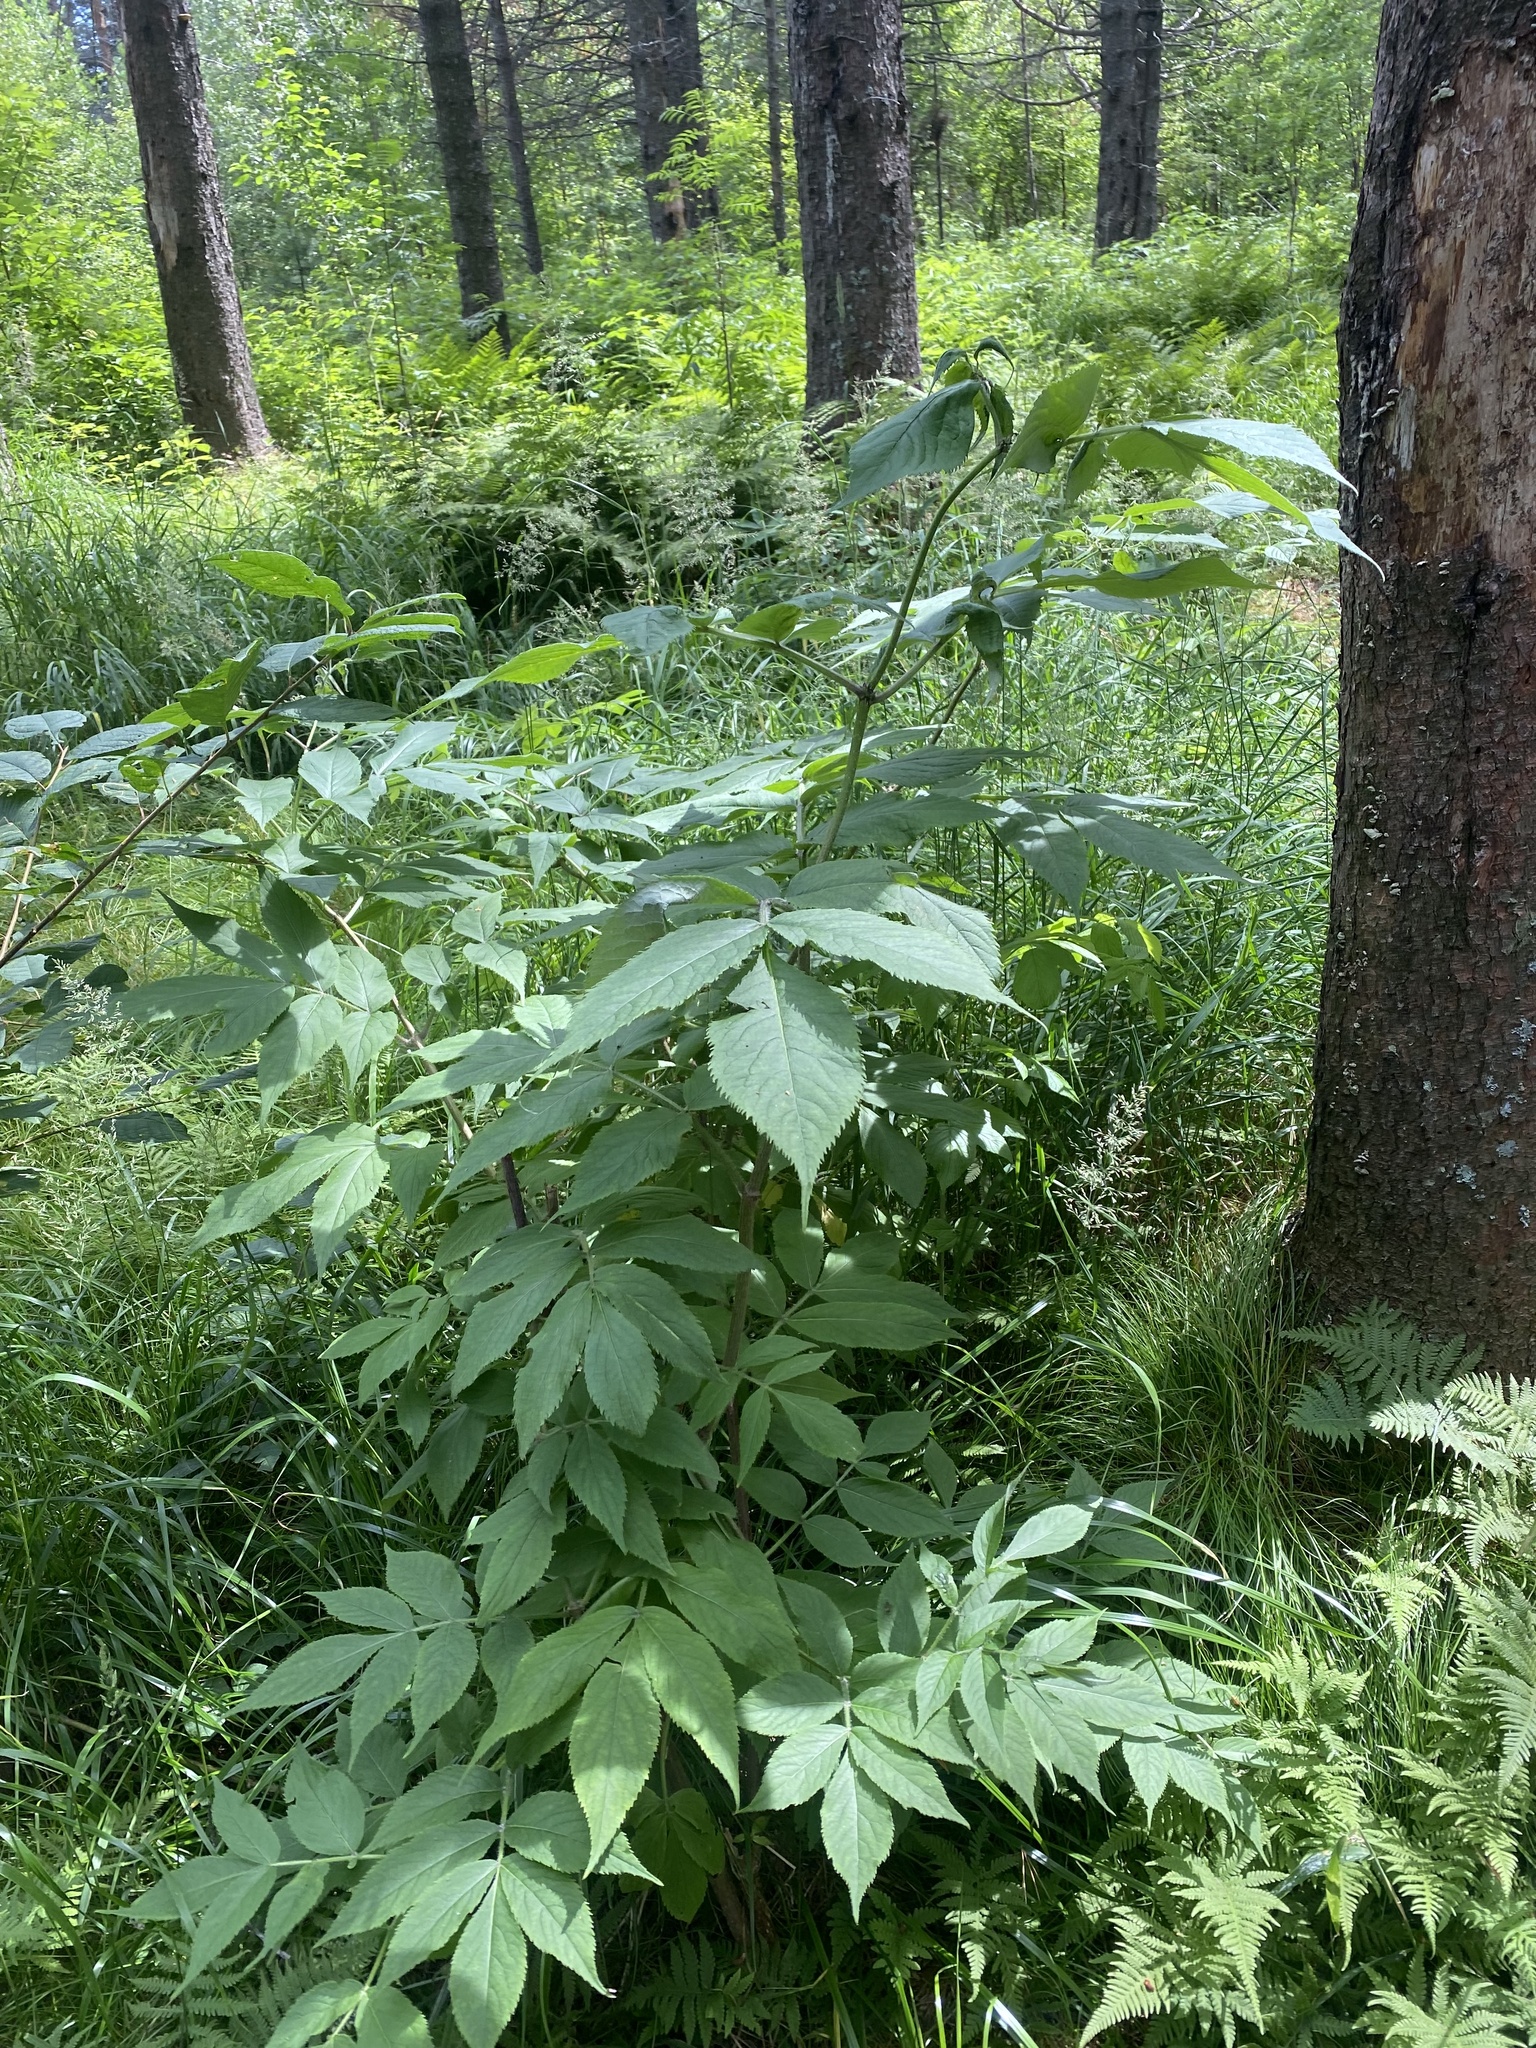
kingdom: Plantae
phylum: Tracheophyta
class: Magnoliopsida
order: Dipsacales
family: Viburnaceae
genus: Sambucus
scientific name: Sambucus sibirica
